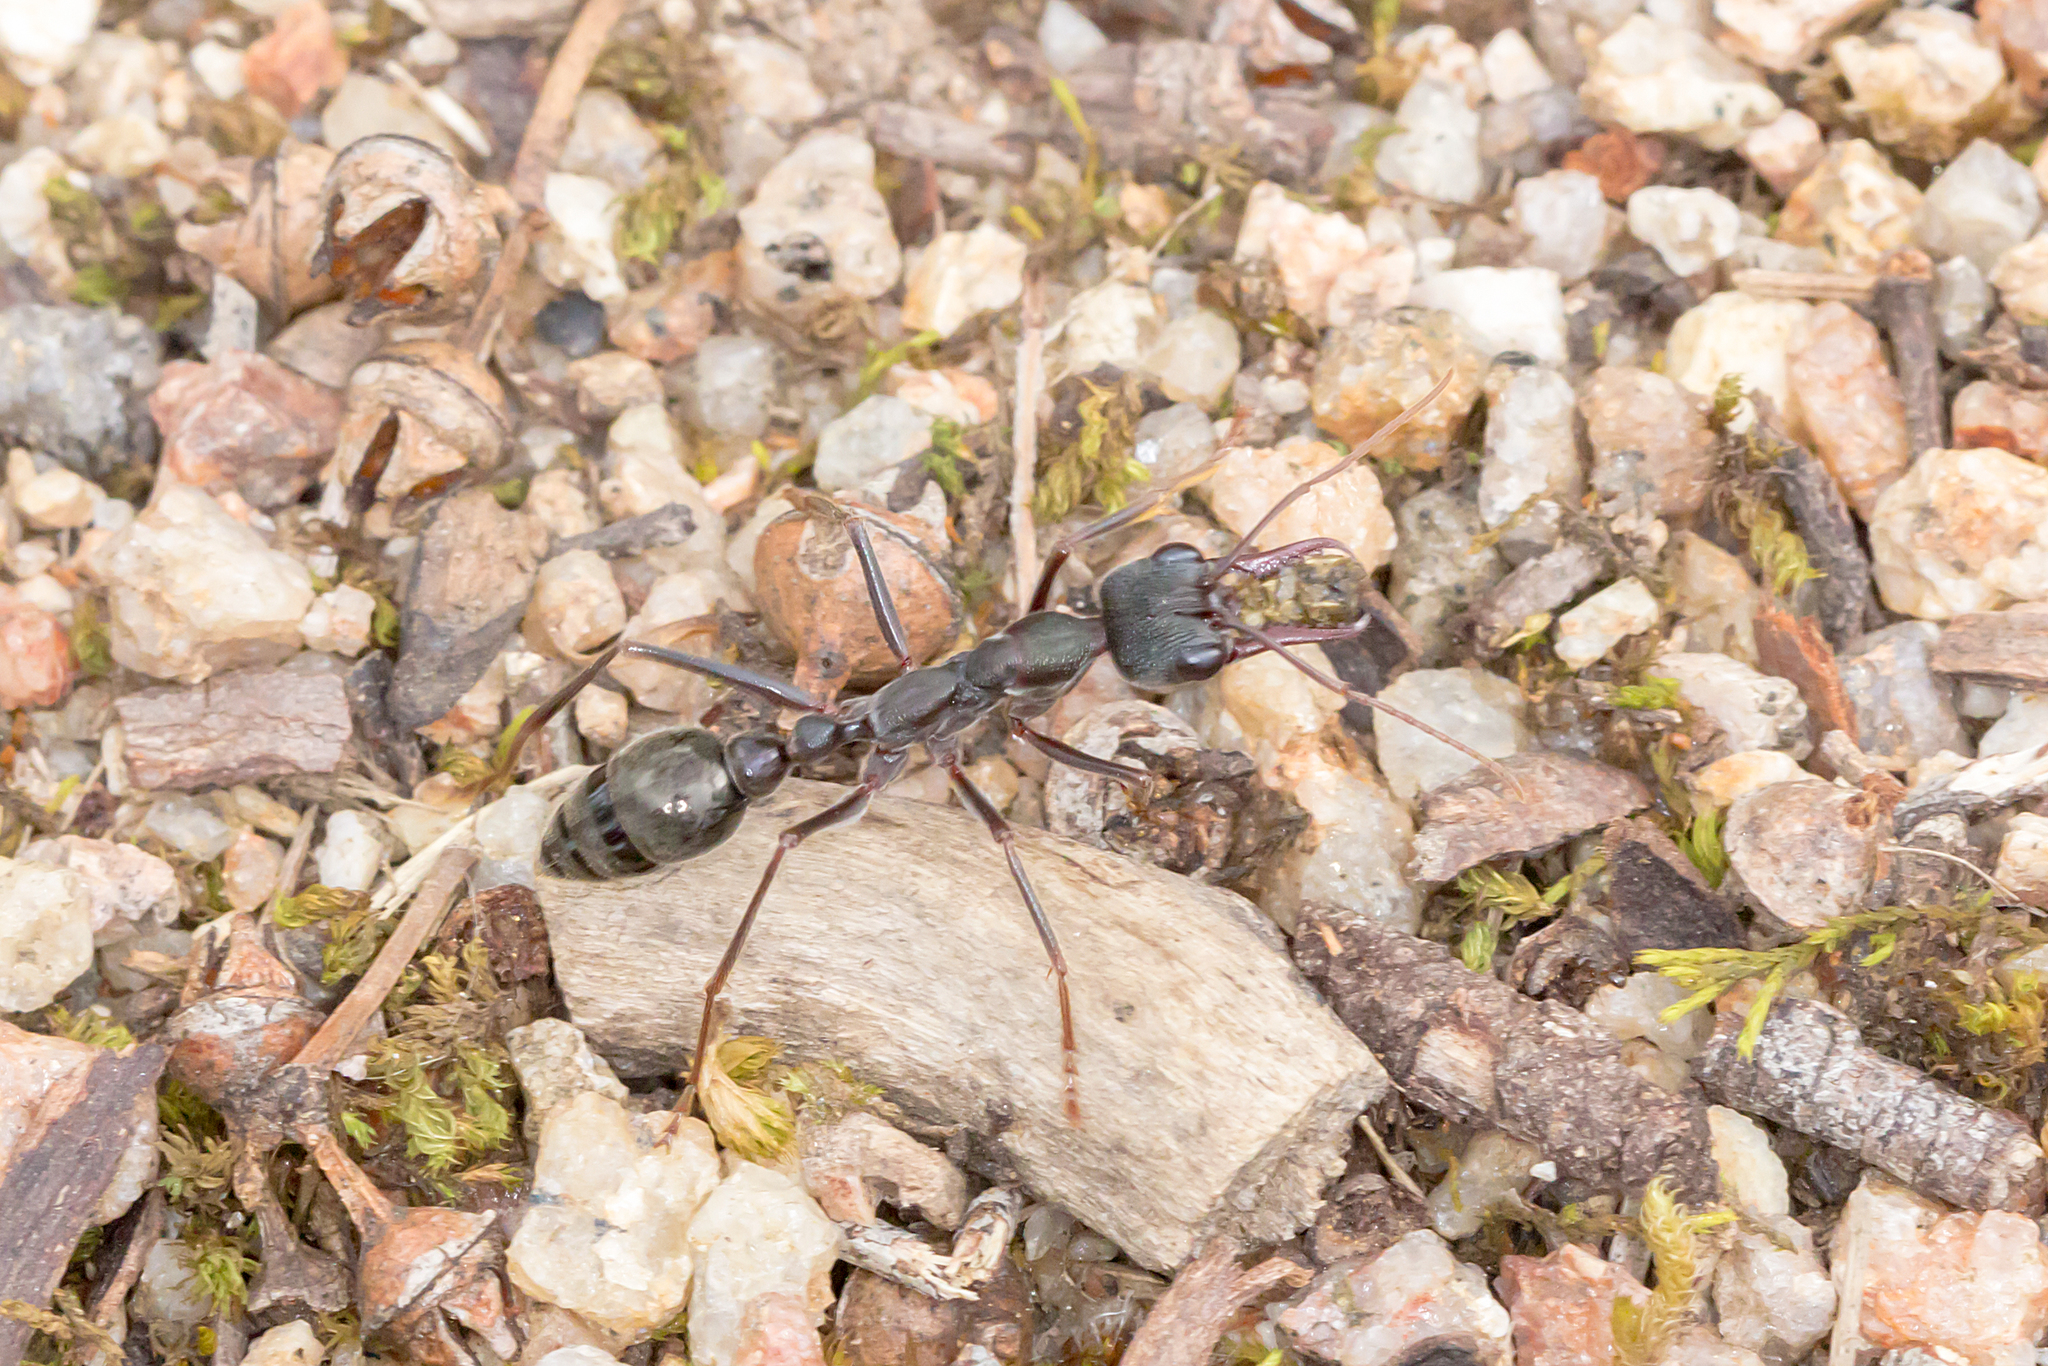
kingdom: Animalia
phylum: Arthropoda
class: Insecta
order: Hymenoptera
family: Formicidae
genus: Myrmecia
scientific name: Myrmecia pyriformis
